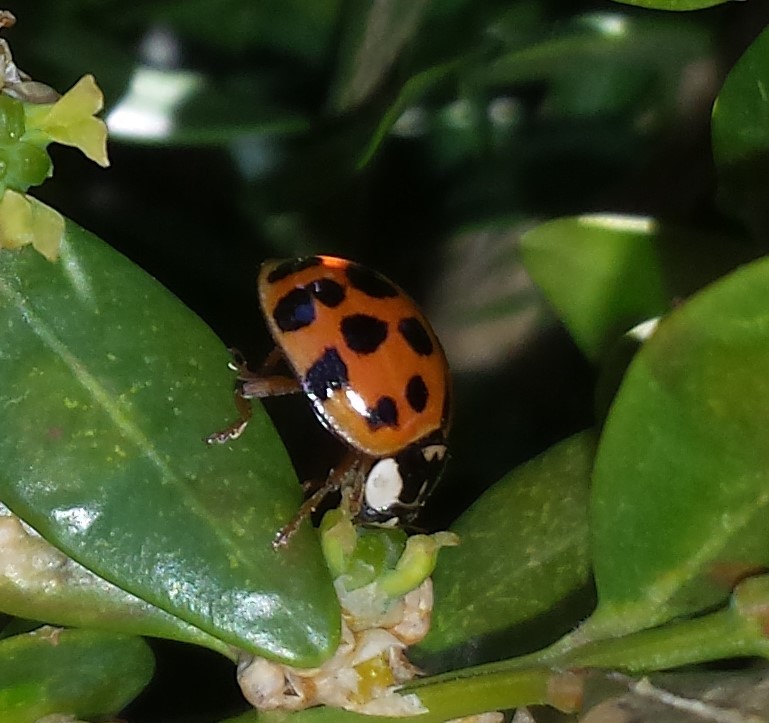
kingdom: Animalia
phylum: Arthropoda
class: Insecta
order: Coleoptera
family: Coccinellidae
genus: Harmonia
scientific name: Harmonia axyridis
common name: Harlequin ladybird
